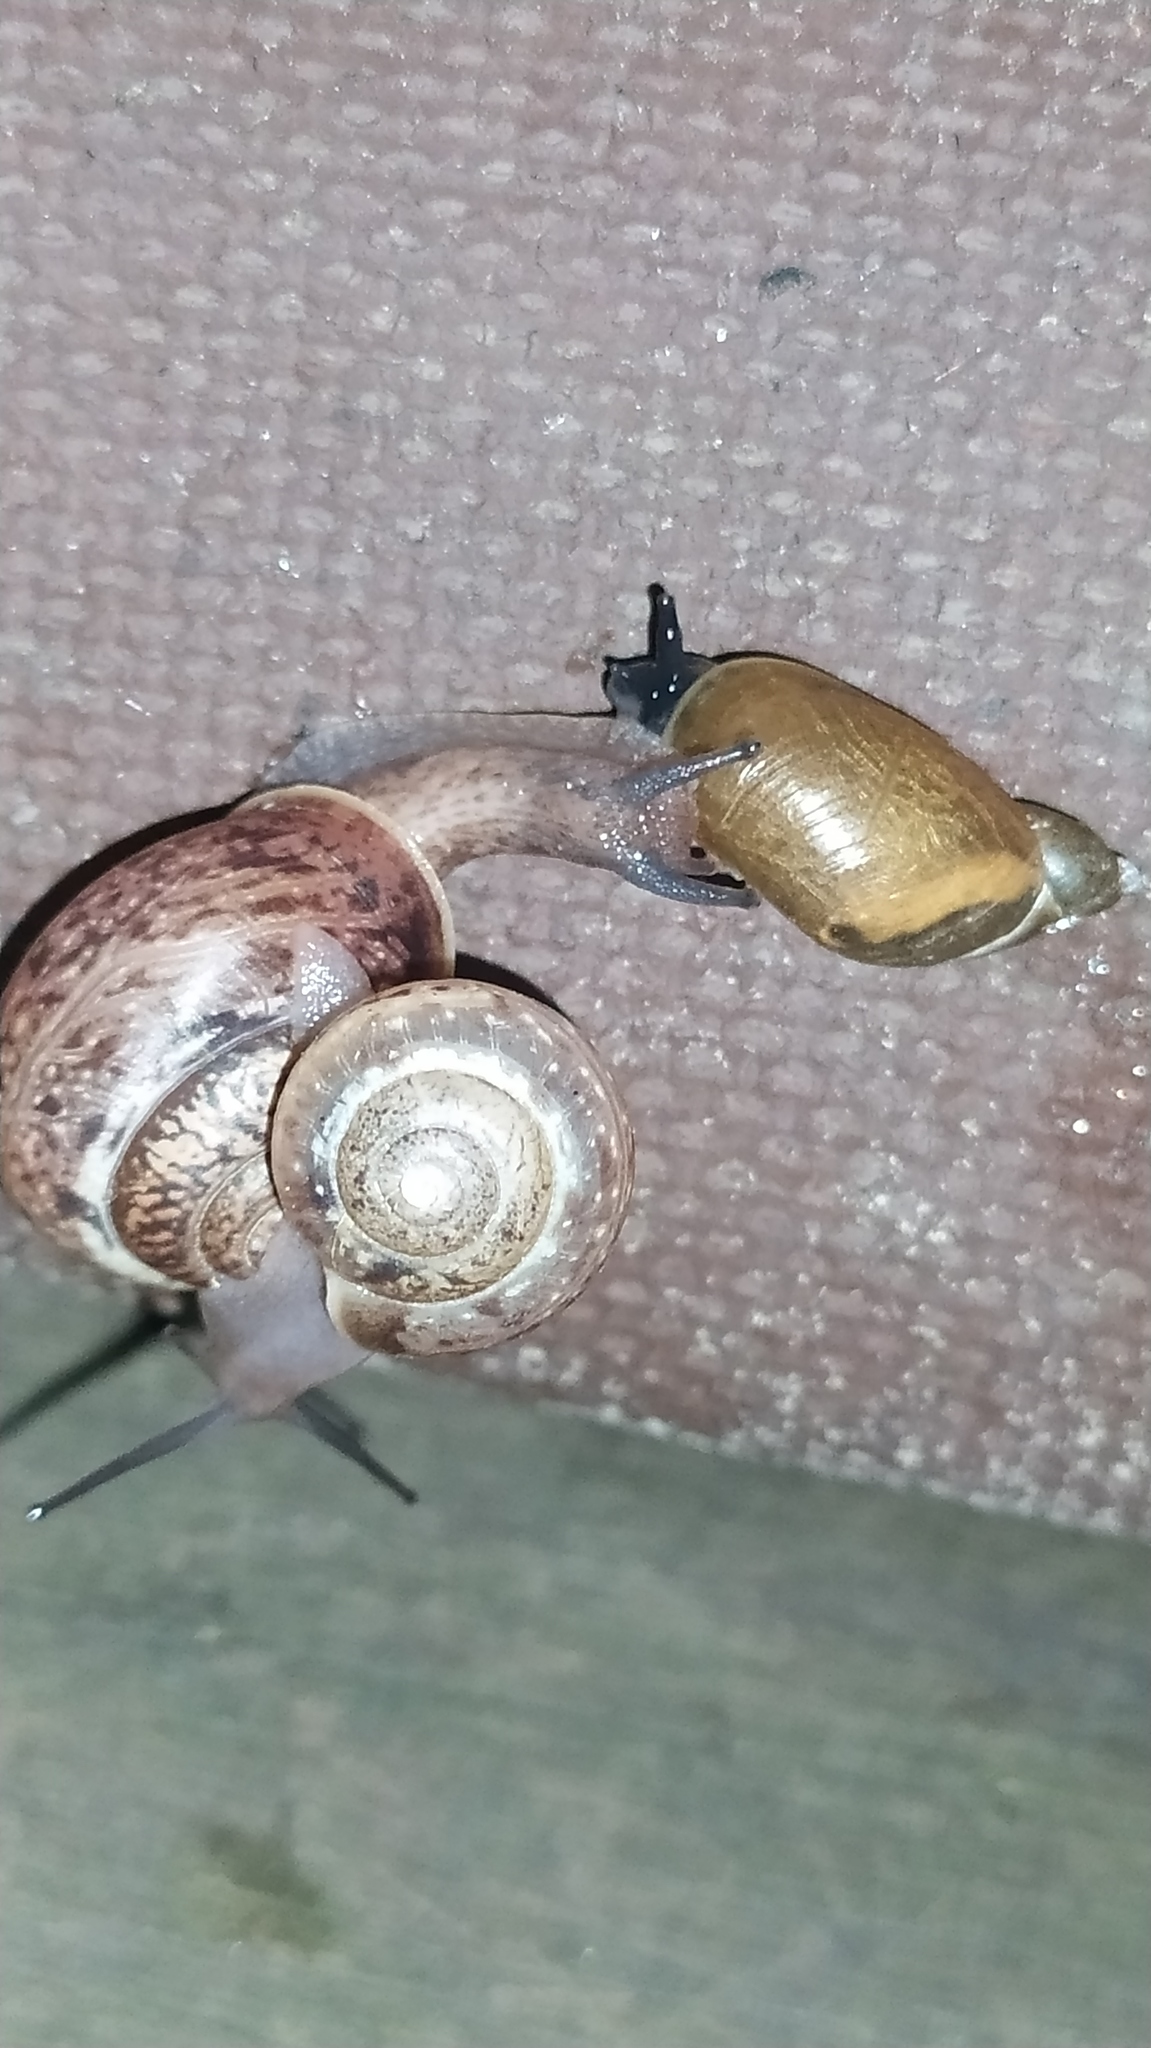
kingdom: Animalia
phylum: Mollusca
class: Gastropoda
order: Stylommatophora
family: Camaenidae
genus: Fruticicola
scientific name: Fruticicola fruticum
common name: Bush snail
